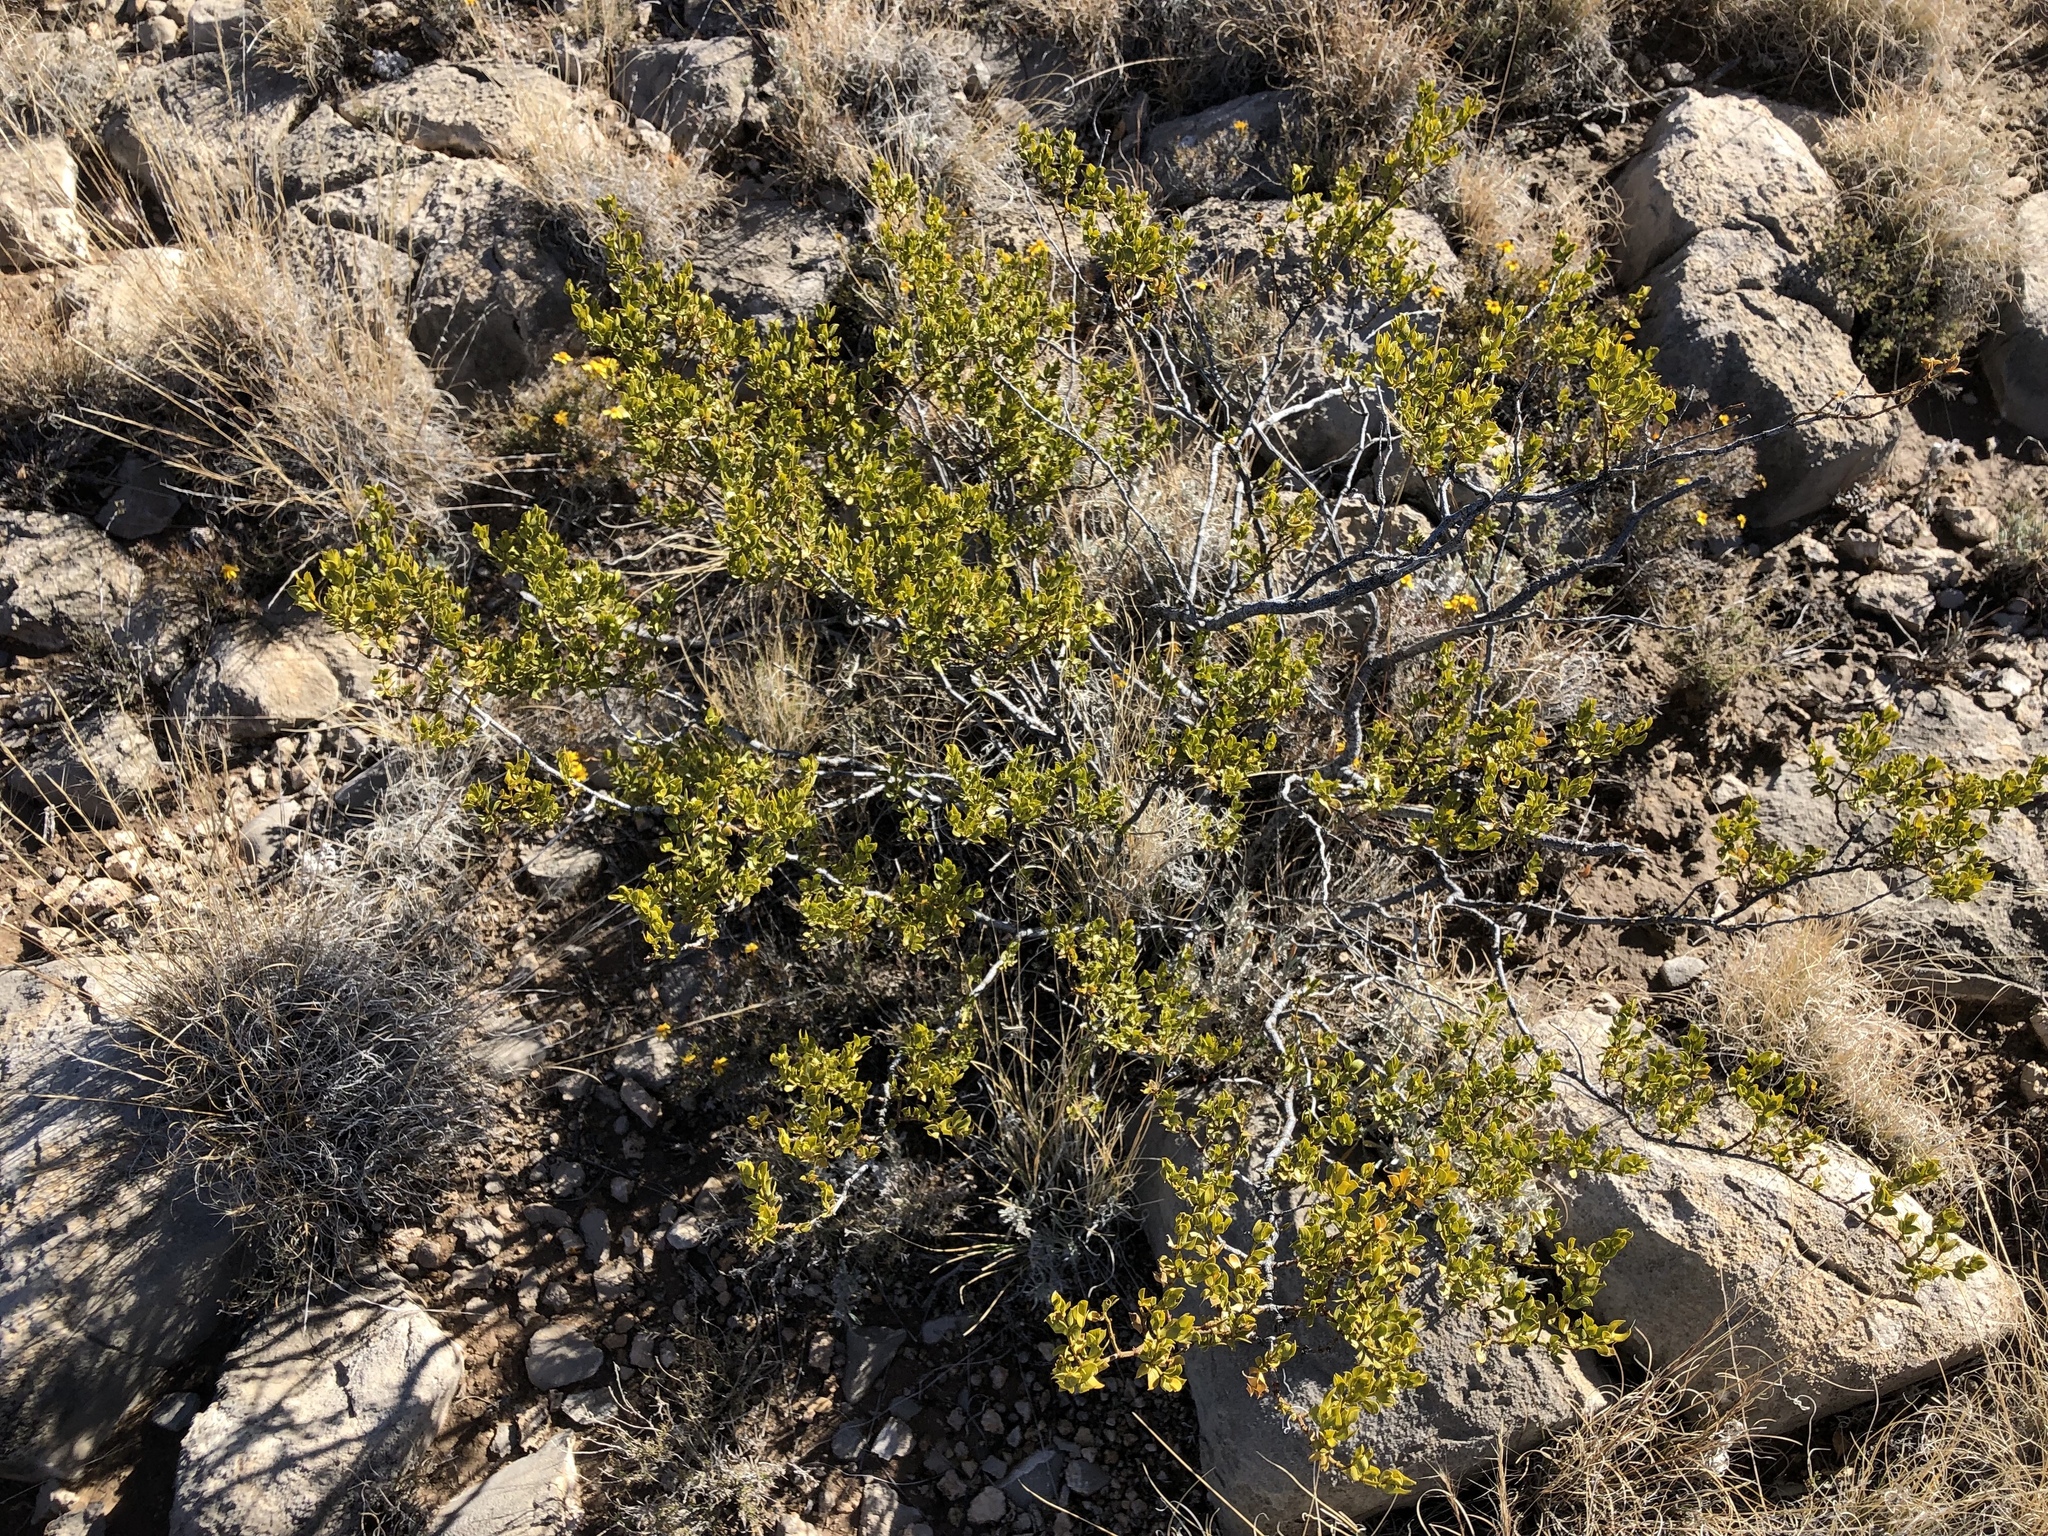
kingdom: Plantae
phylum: Tracheophyta
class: Magnoliopsida
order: Zygophyllales
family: Zygophyllaceae
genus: Larrea
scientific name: Larrea tridentata
